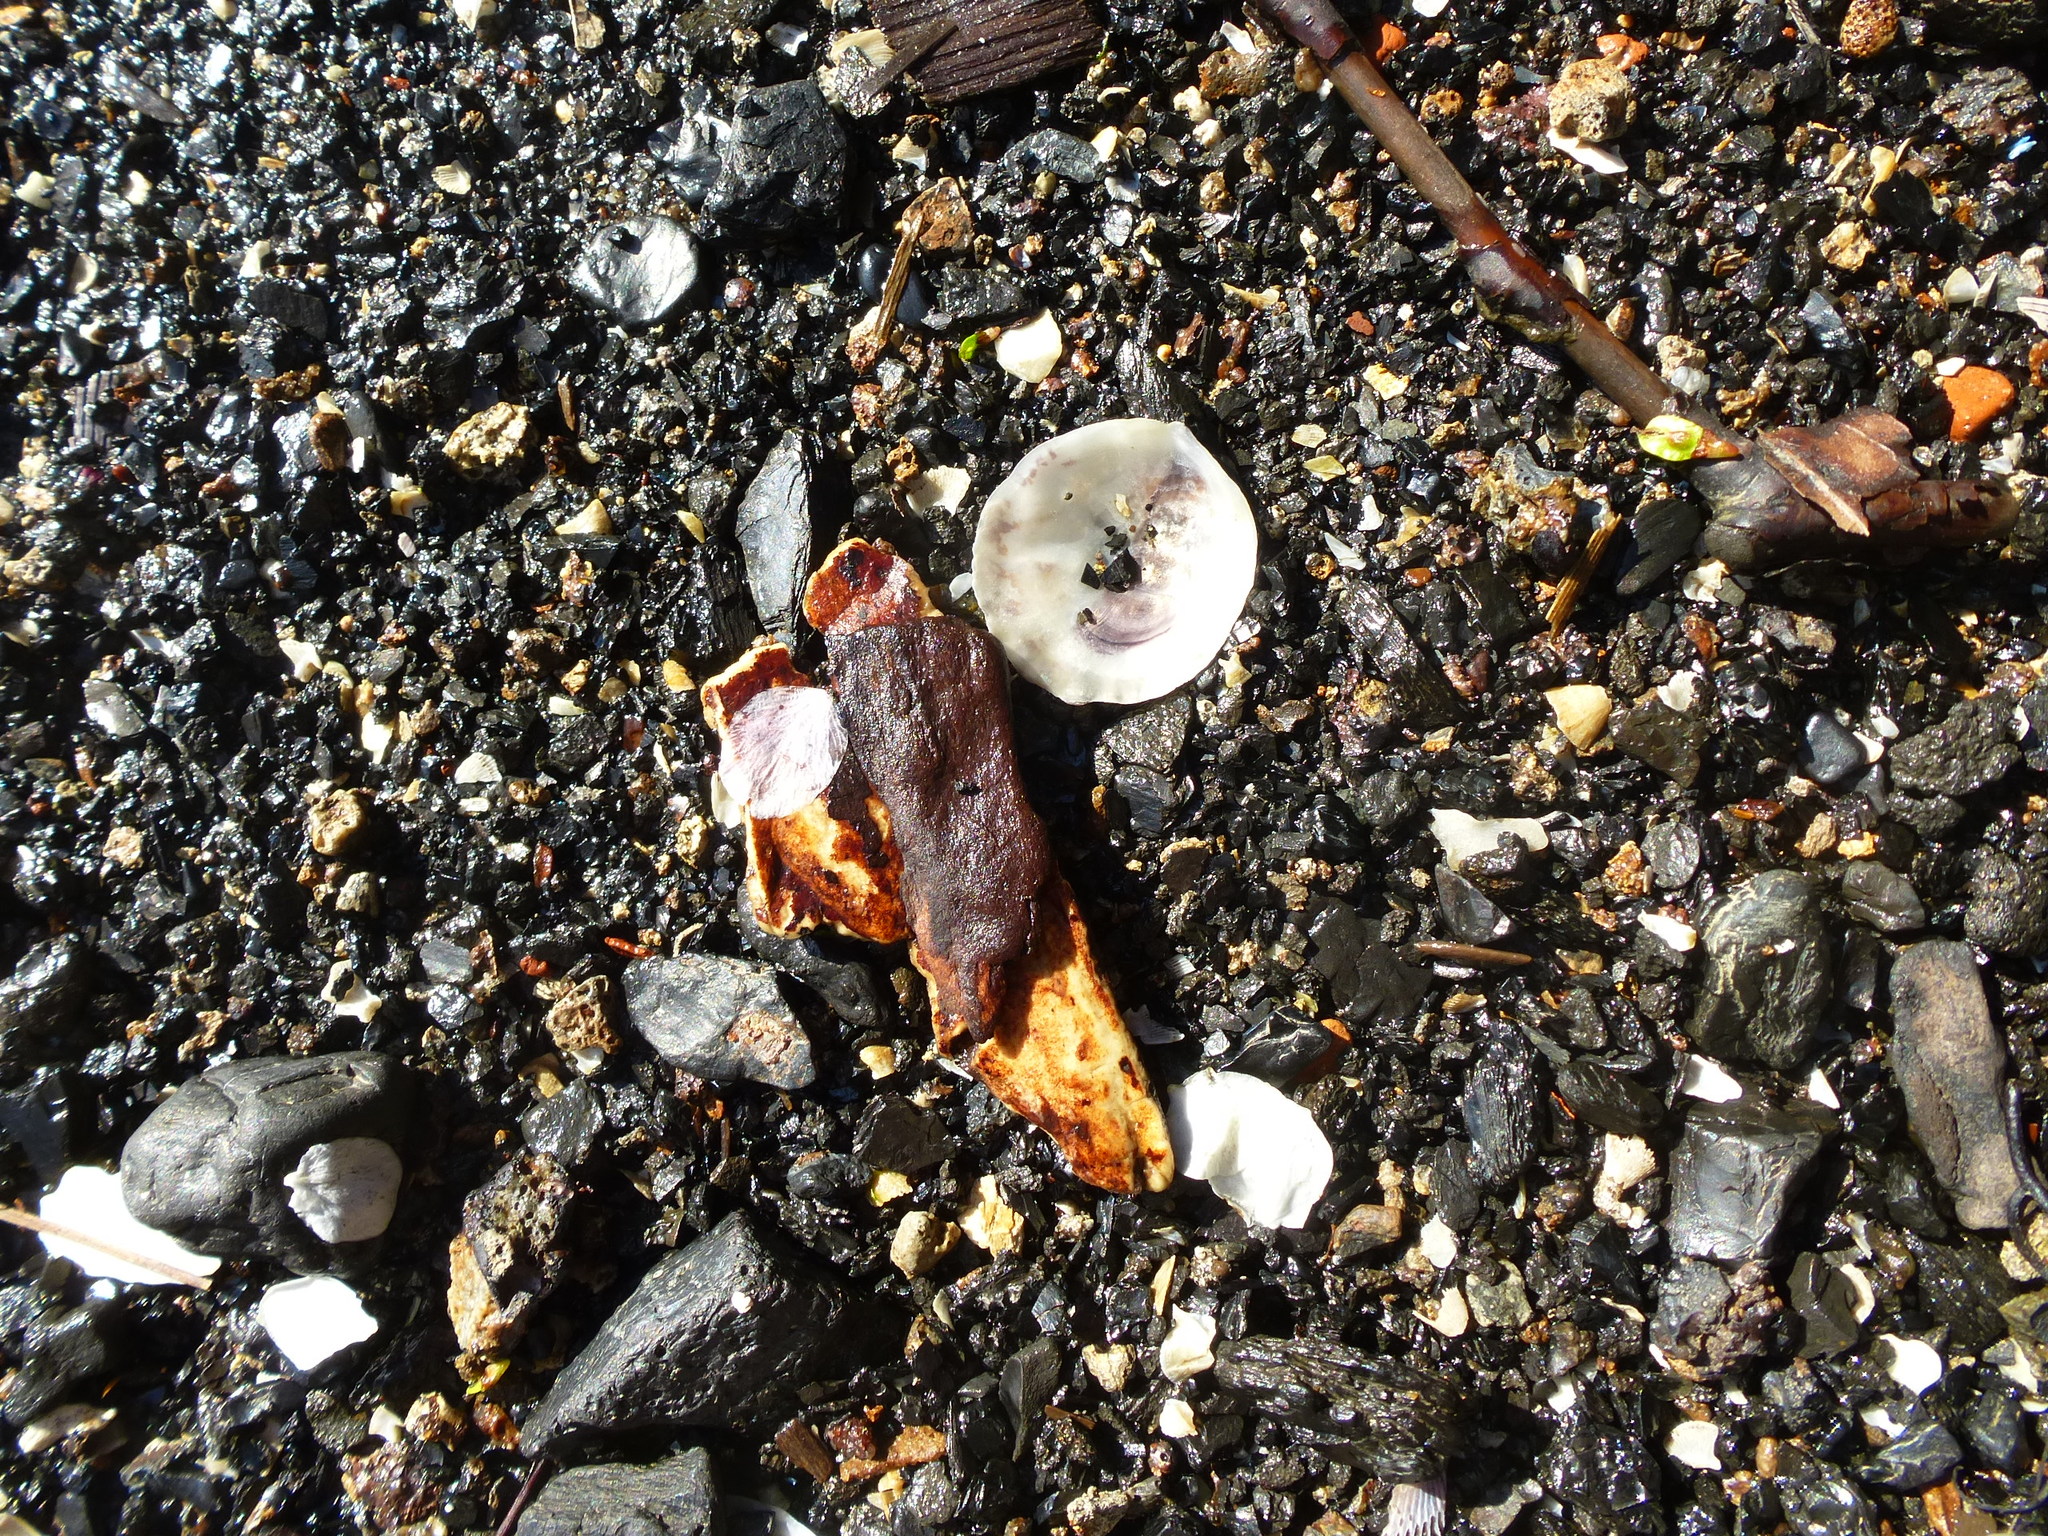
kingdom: Animalia
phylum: Mollusca
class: Bivalvia
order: Ostreida
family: Ostreidae
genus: Crassostrea
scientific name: Crassostrea virginica
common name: American oyster
